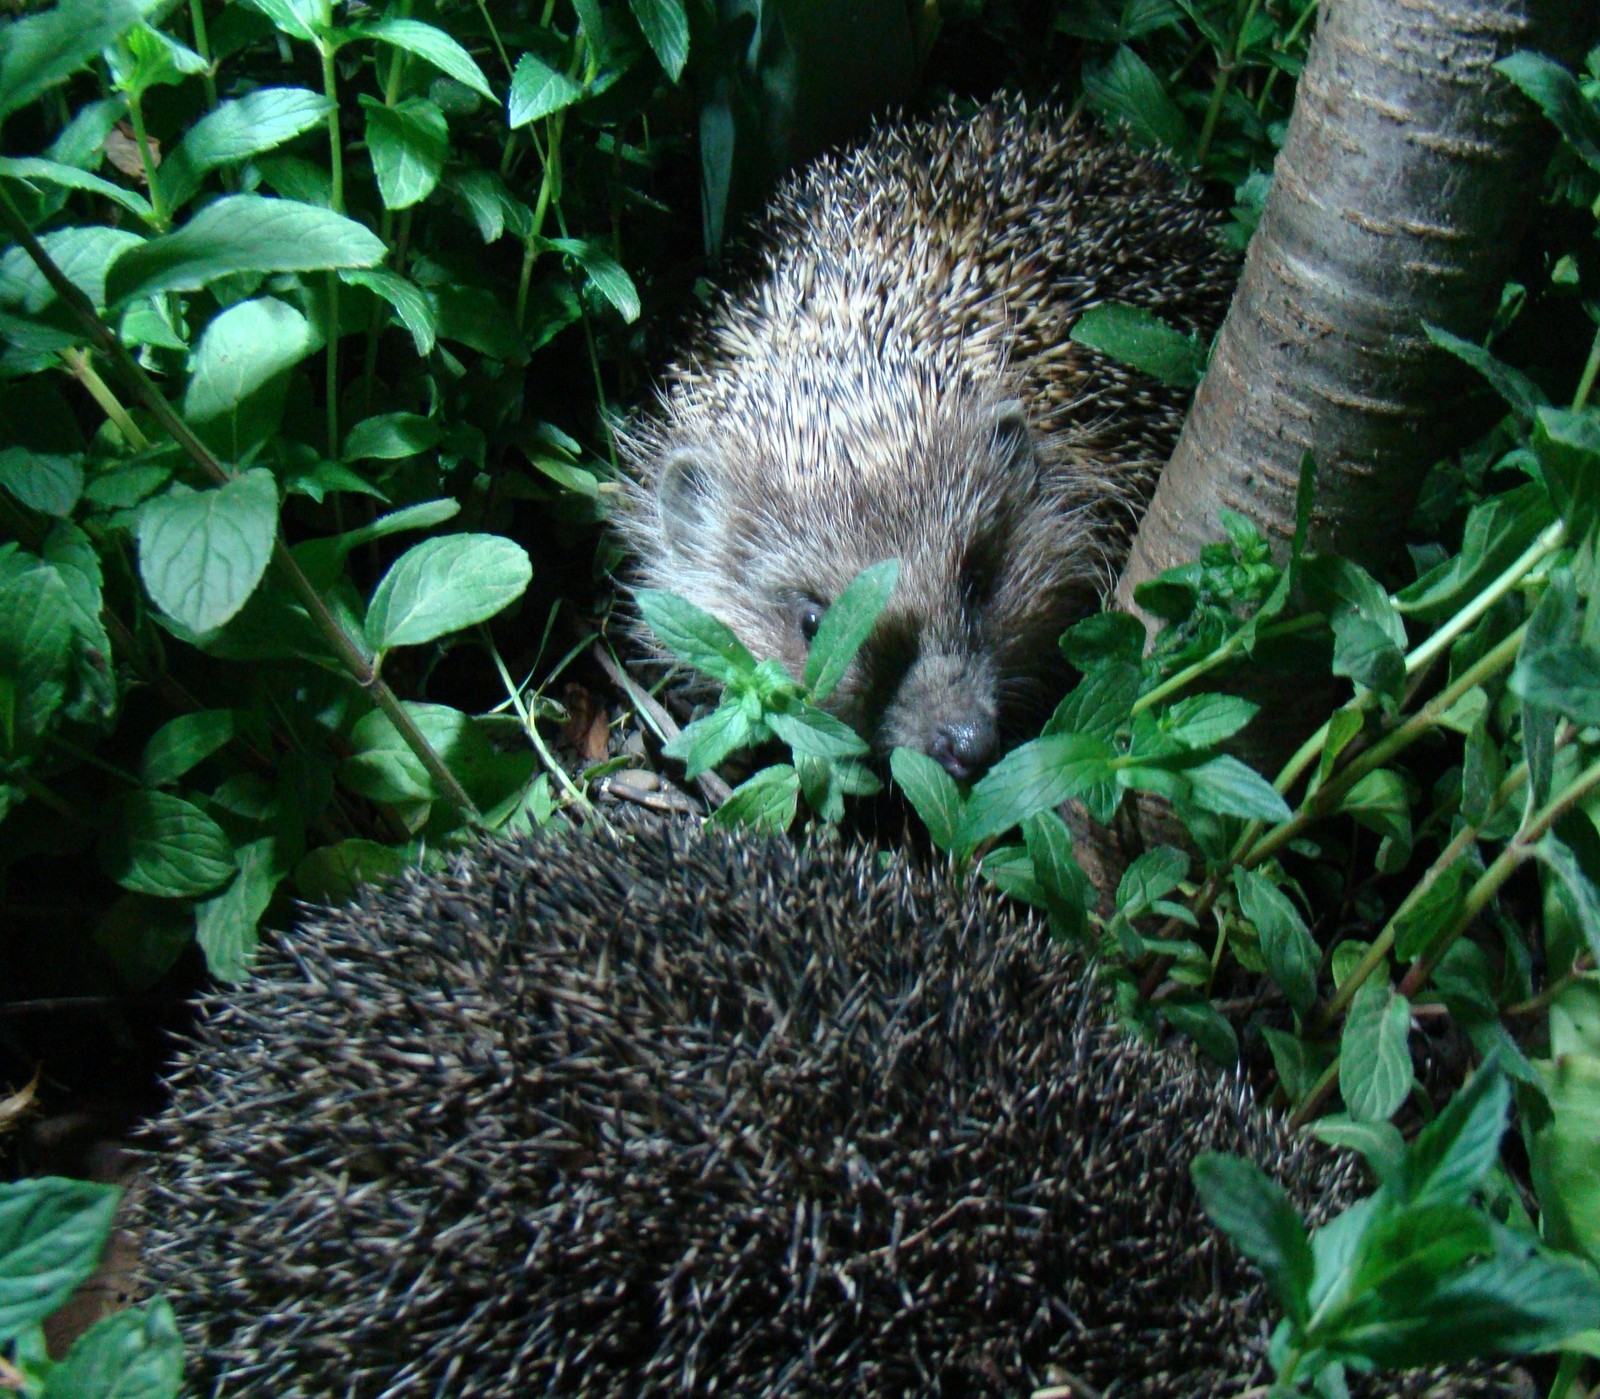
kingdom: Animalia
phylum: Chordata
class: Mammalia
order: Erinaceomorpha
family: Erinaceidae
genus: Erinaceus
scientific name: Erinaceus roumanicus
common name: Northern white-breasted hedgehog
